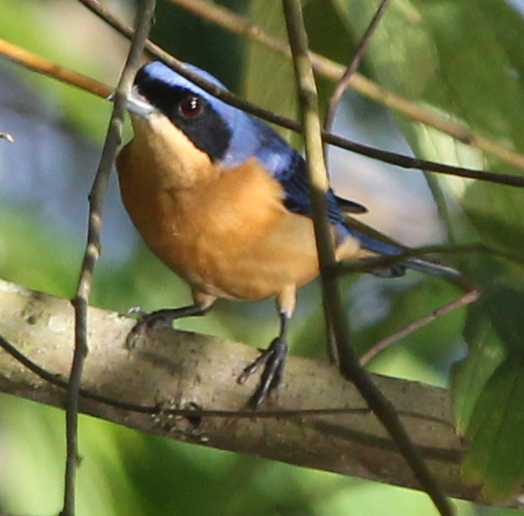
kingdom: Animalia
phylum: Chordata
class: Aves
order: Passeriformes
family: Thraupidae
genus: Pipraeidea
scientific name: Pipraeidea melanonota
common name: Fawn-breasted tanager
